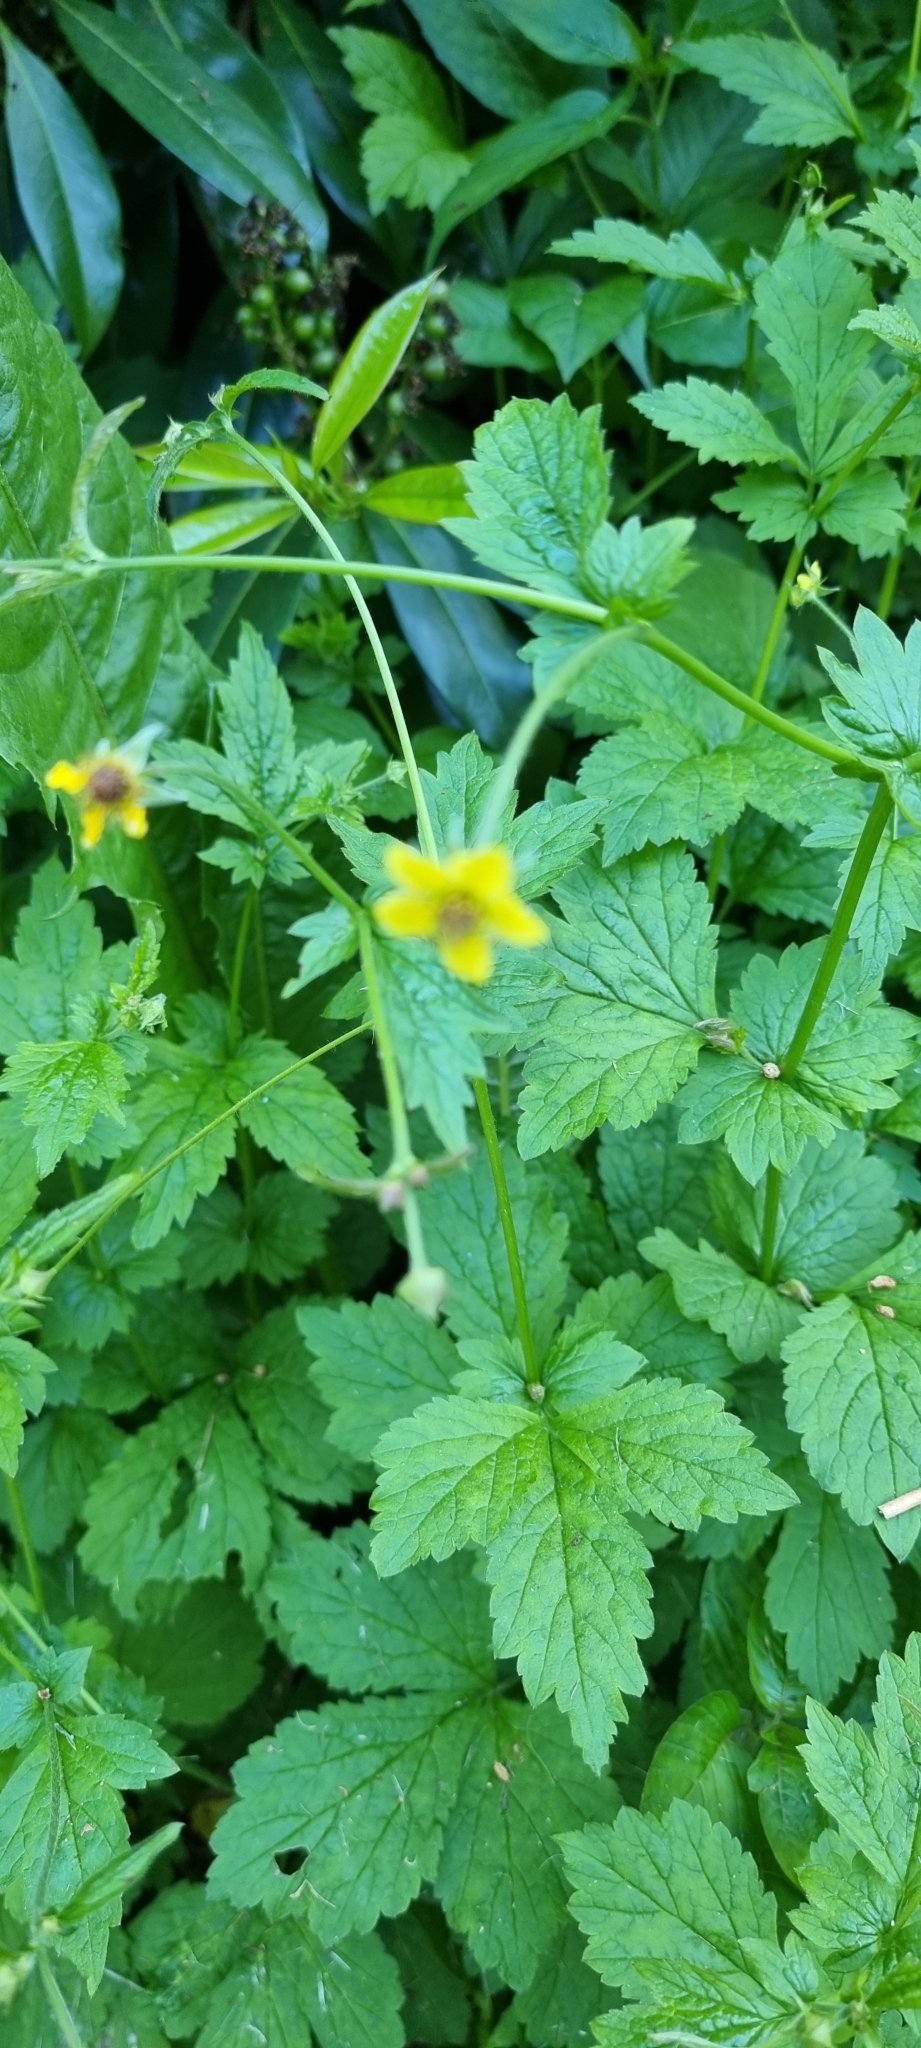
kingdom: Plantae
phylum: Tracheophyta
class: Magnoliopsida
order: Rosales
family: Rosaceae
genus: Geum
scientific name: Geum urbanum
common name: Wood avens
